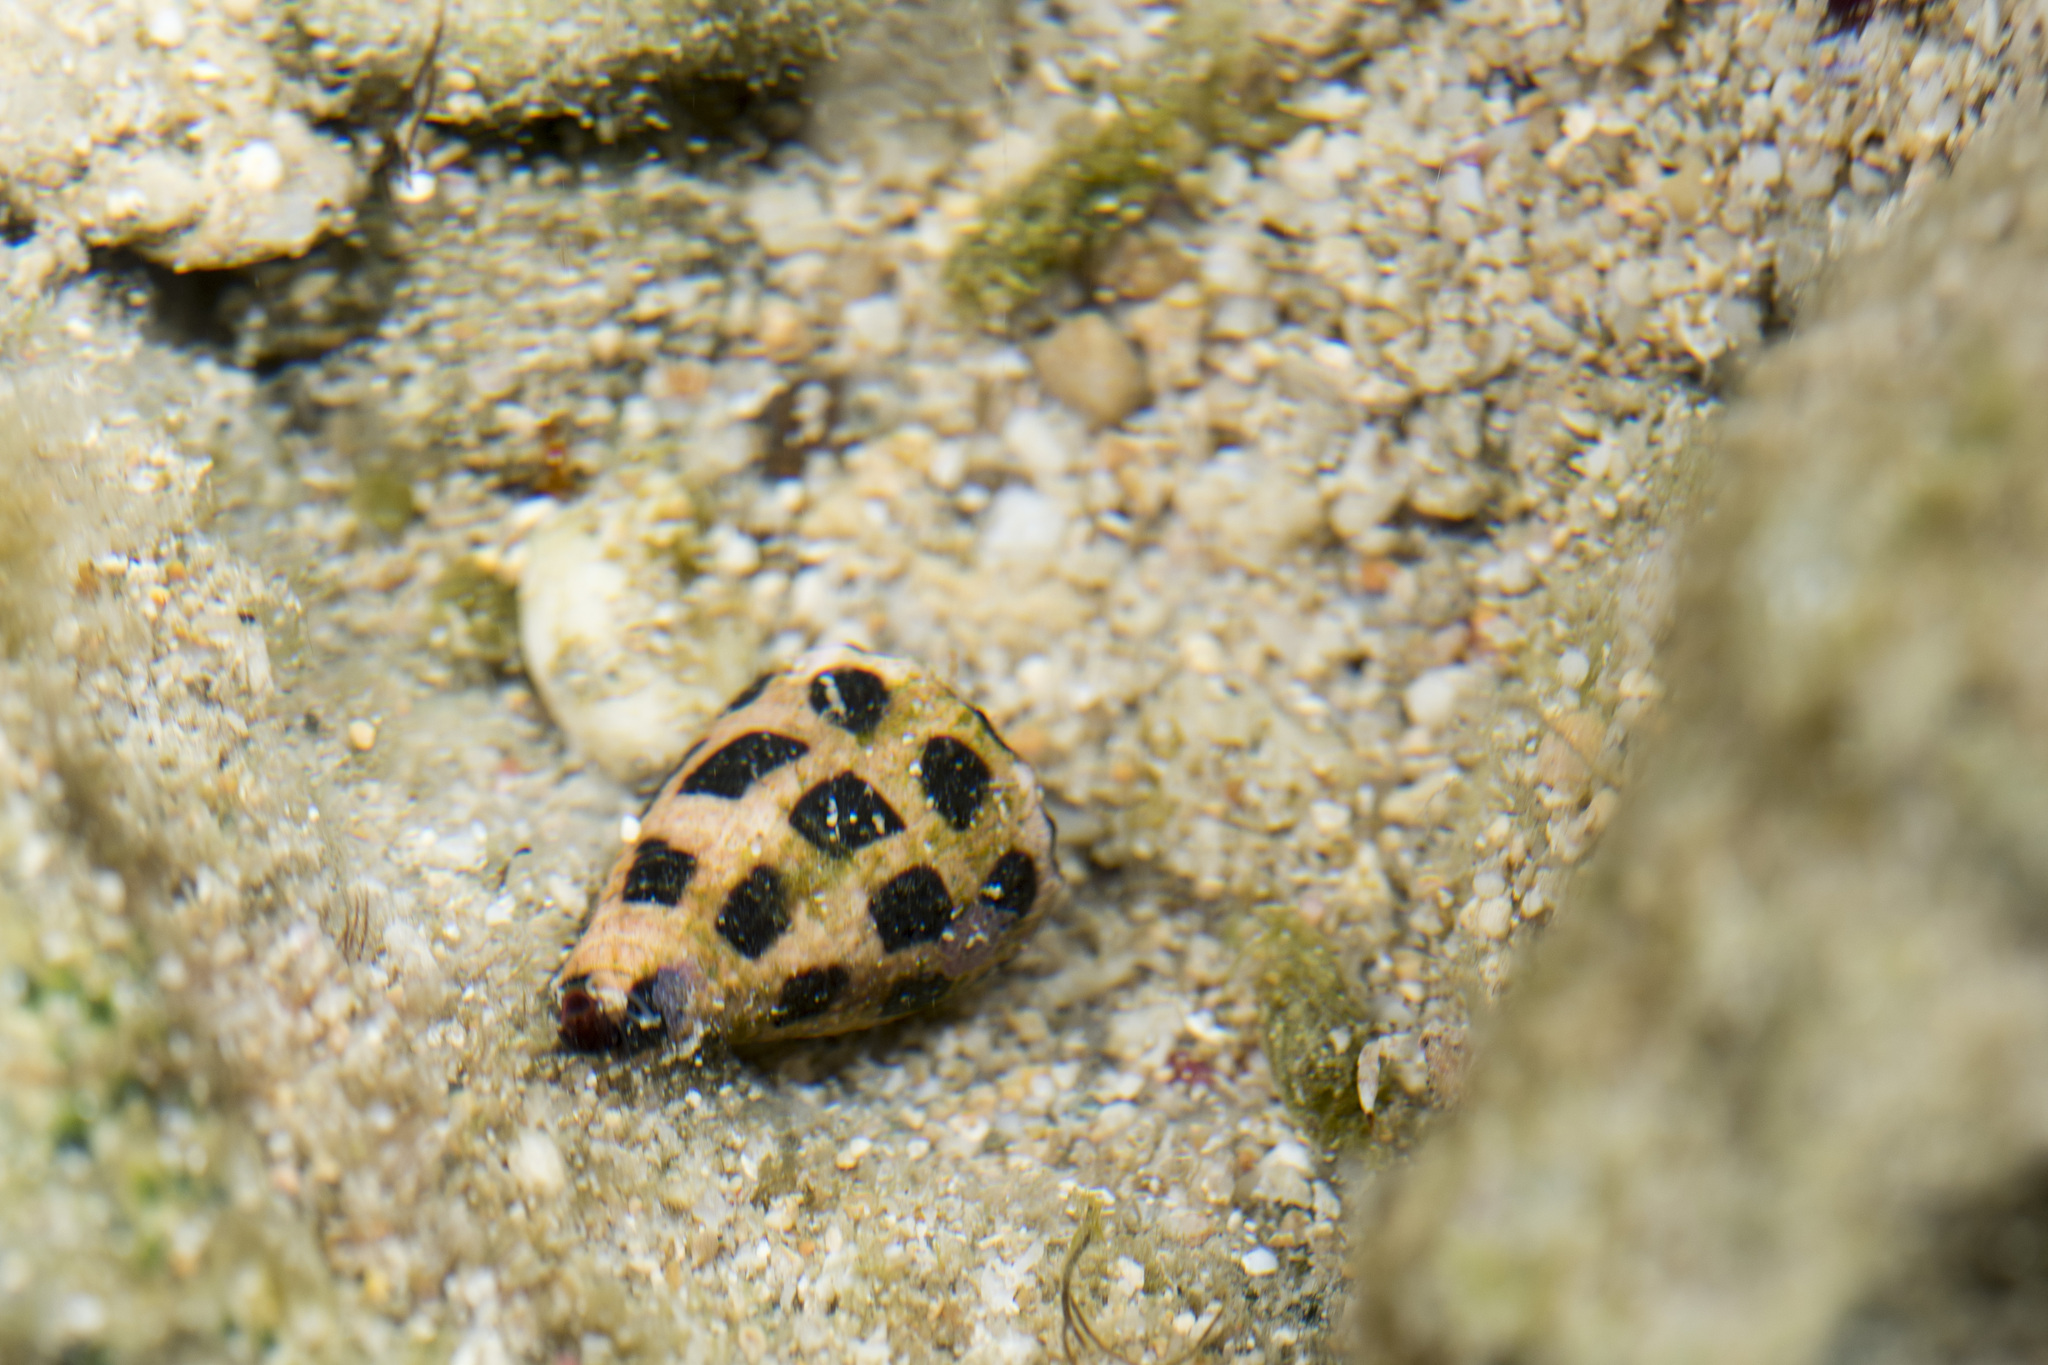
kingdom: Animalia
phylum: Mollusca
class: Gastropoda
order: Neogastropoda
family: Conidae
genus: Conus
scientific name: Conus ebraeus
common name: Hebrew cone
